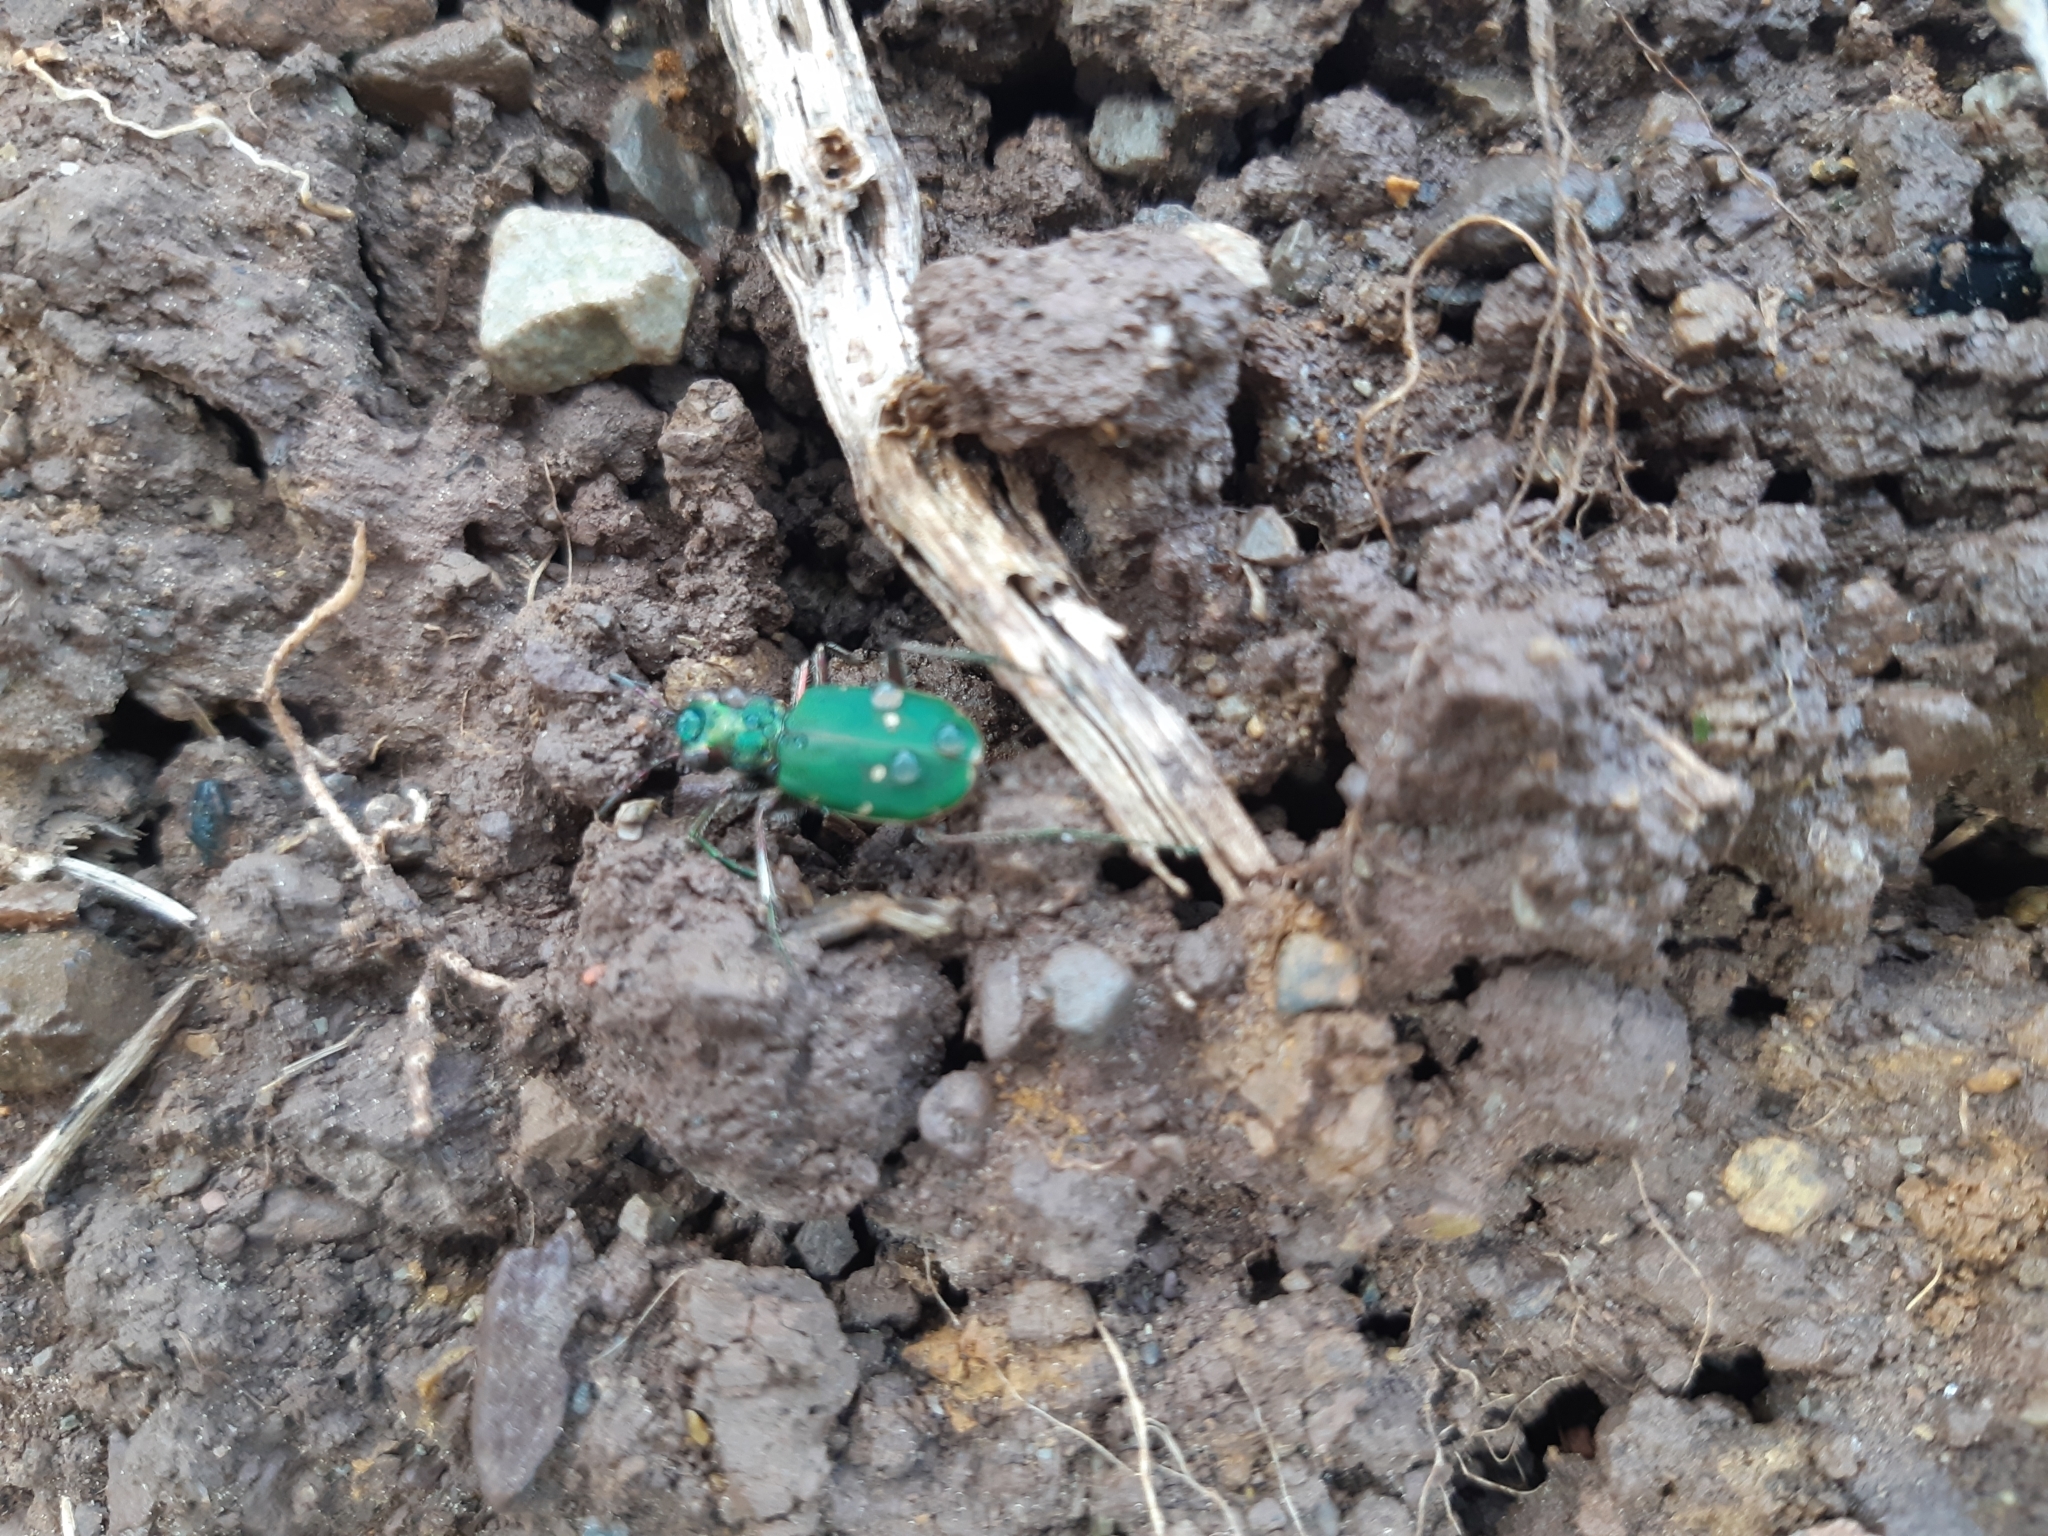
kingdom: Animalia
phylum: Arthropoda
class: Insecta
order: Coleoptera
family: Carabidae
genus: Cicindela
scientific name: Cicindela campestris
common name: Common tiger beetle
